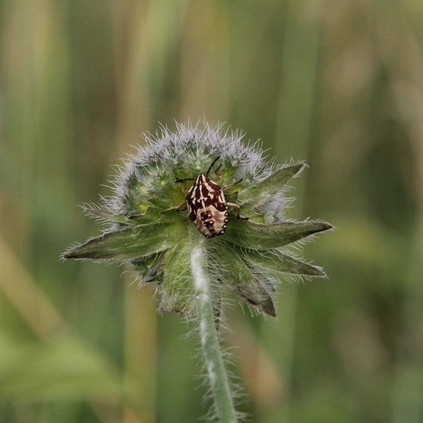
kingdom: Animalia
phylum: Arthropoda
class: Insecta
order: Hemiptera
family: Pentatomidae
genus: Carpocoris
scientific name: Carpocoris purpureipennis
